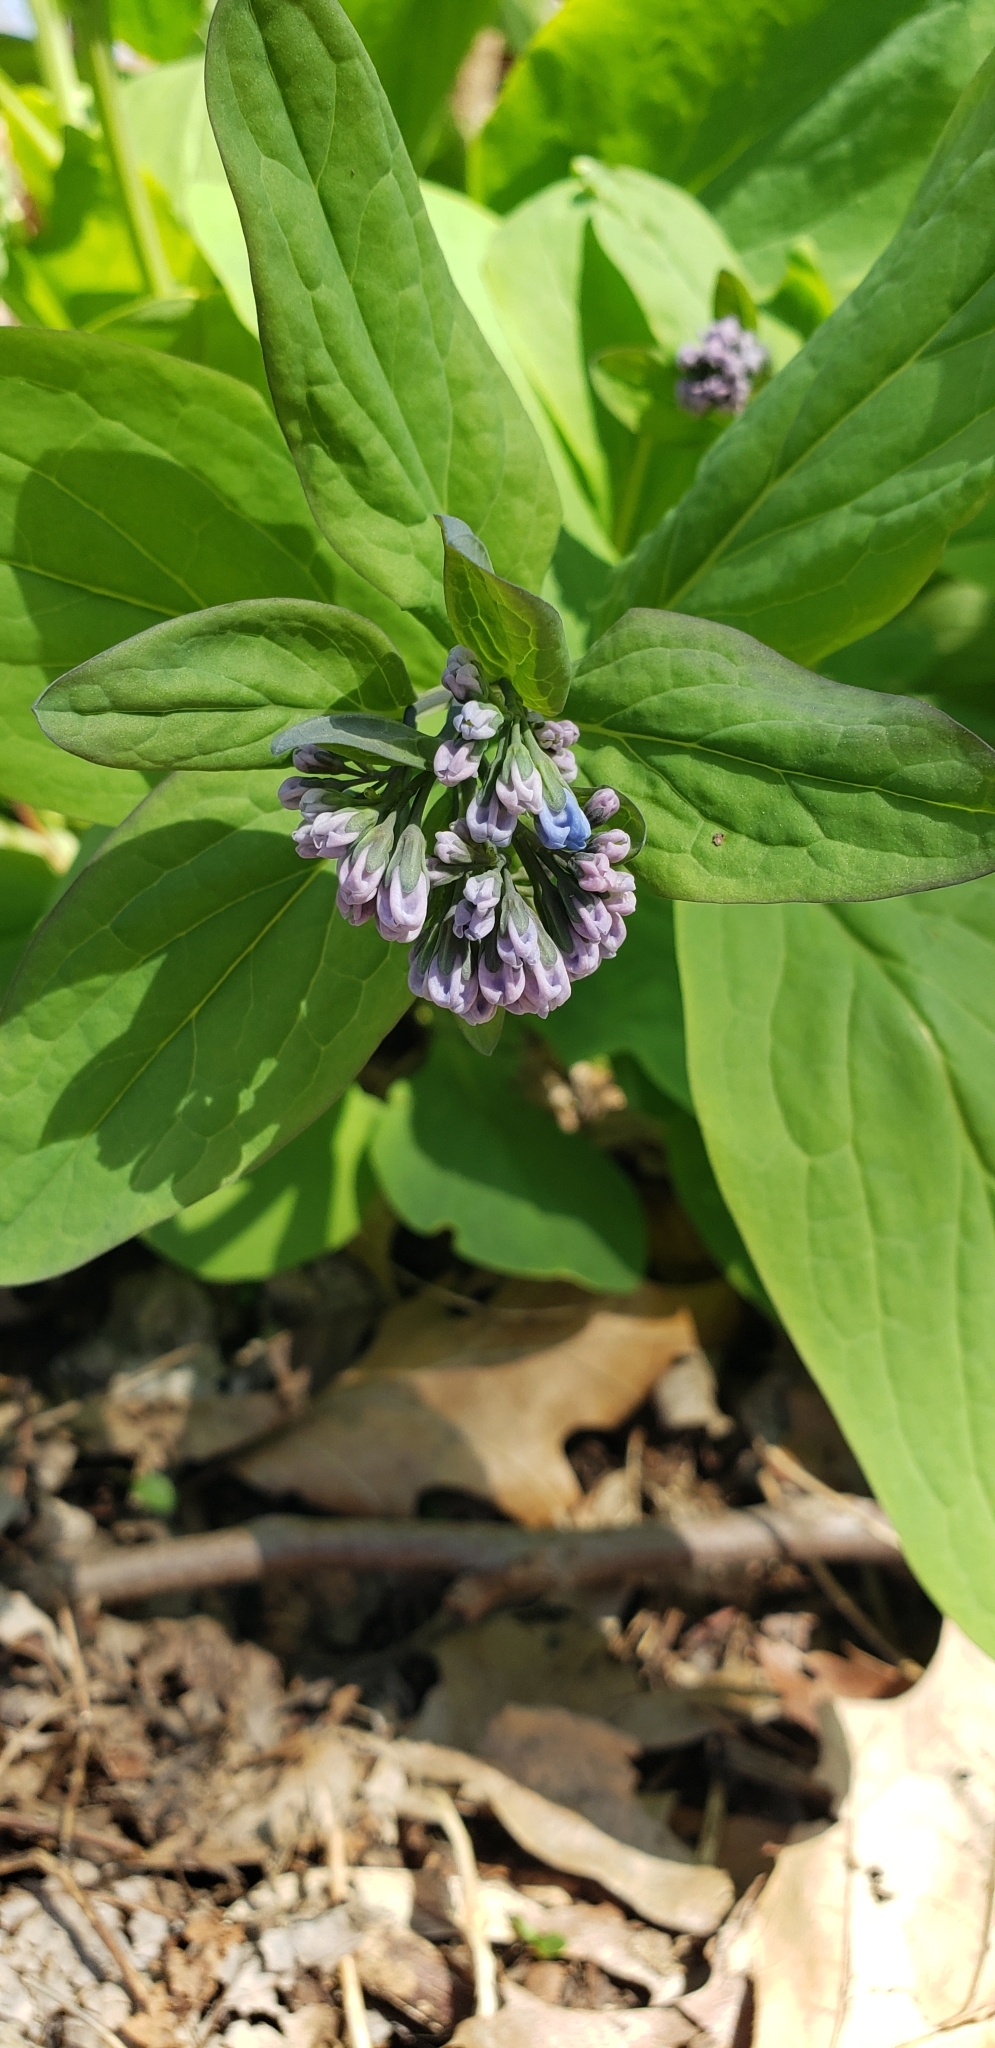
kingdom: Plantae
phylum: Tracheophyta
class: Magnoliopsida
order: Boraginales
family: Boraginaceae
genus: Mertensia
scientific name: Mertensia virginica
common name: Virginia bluebells
